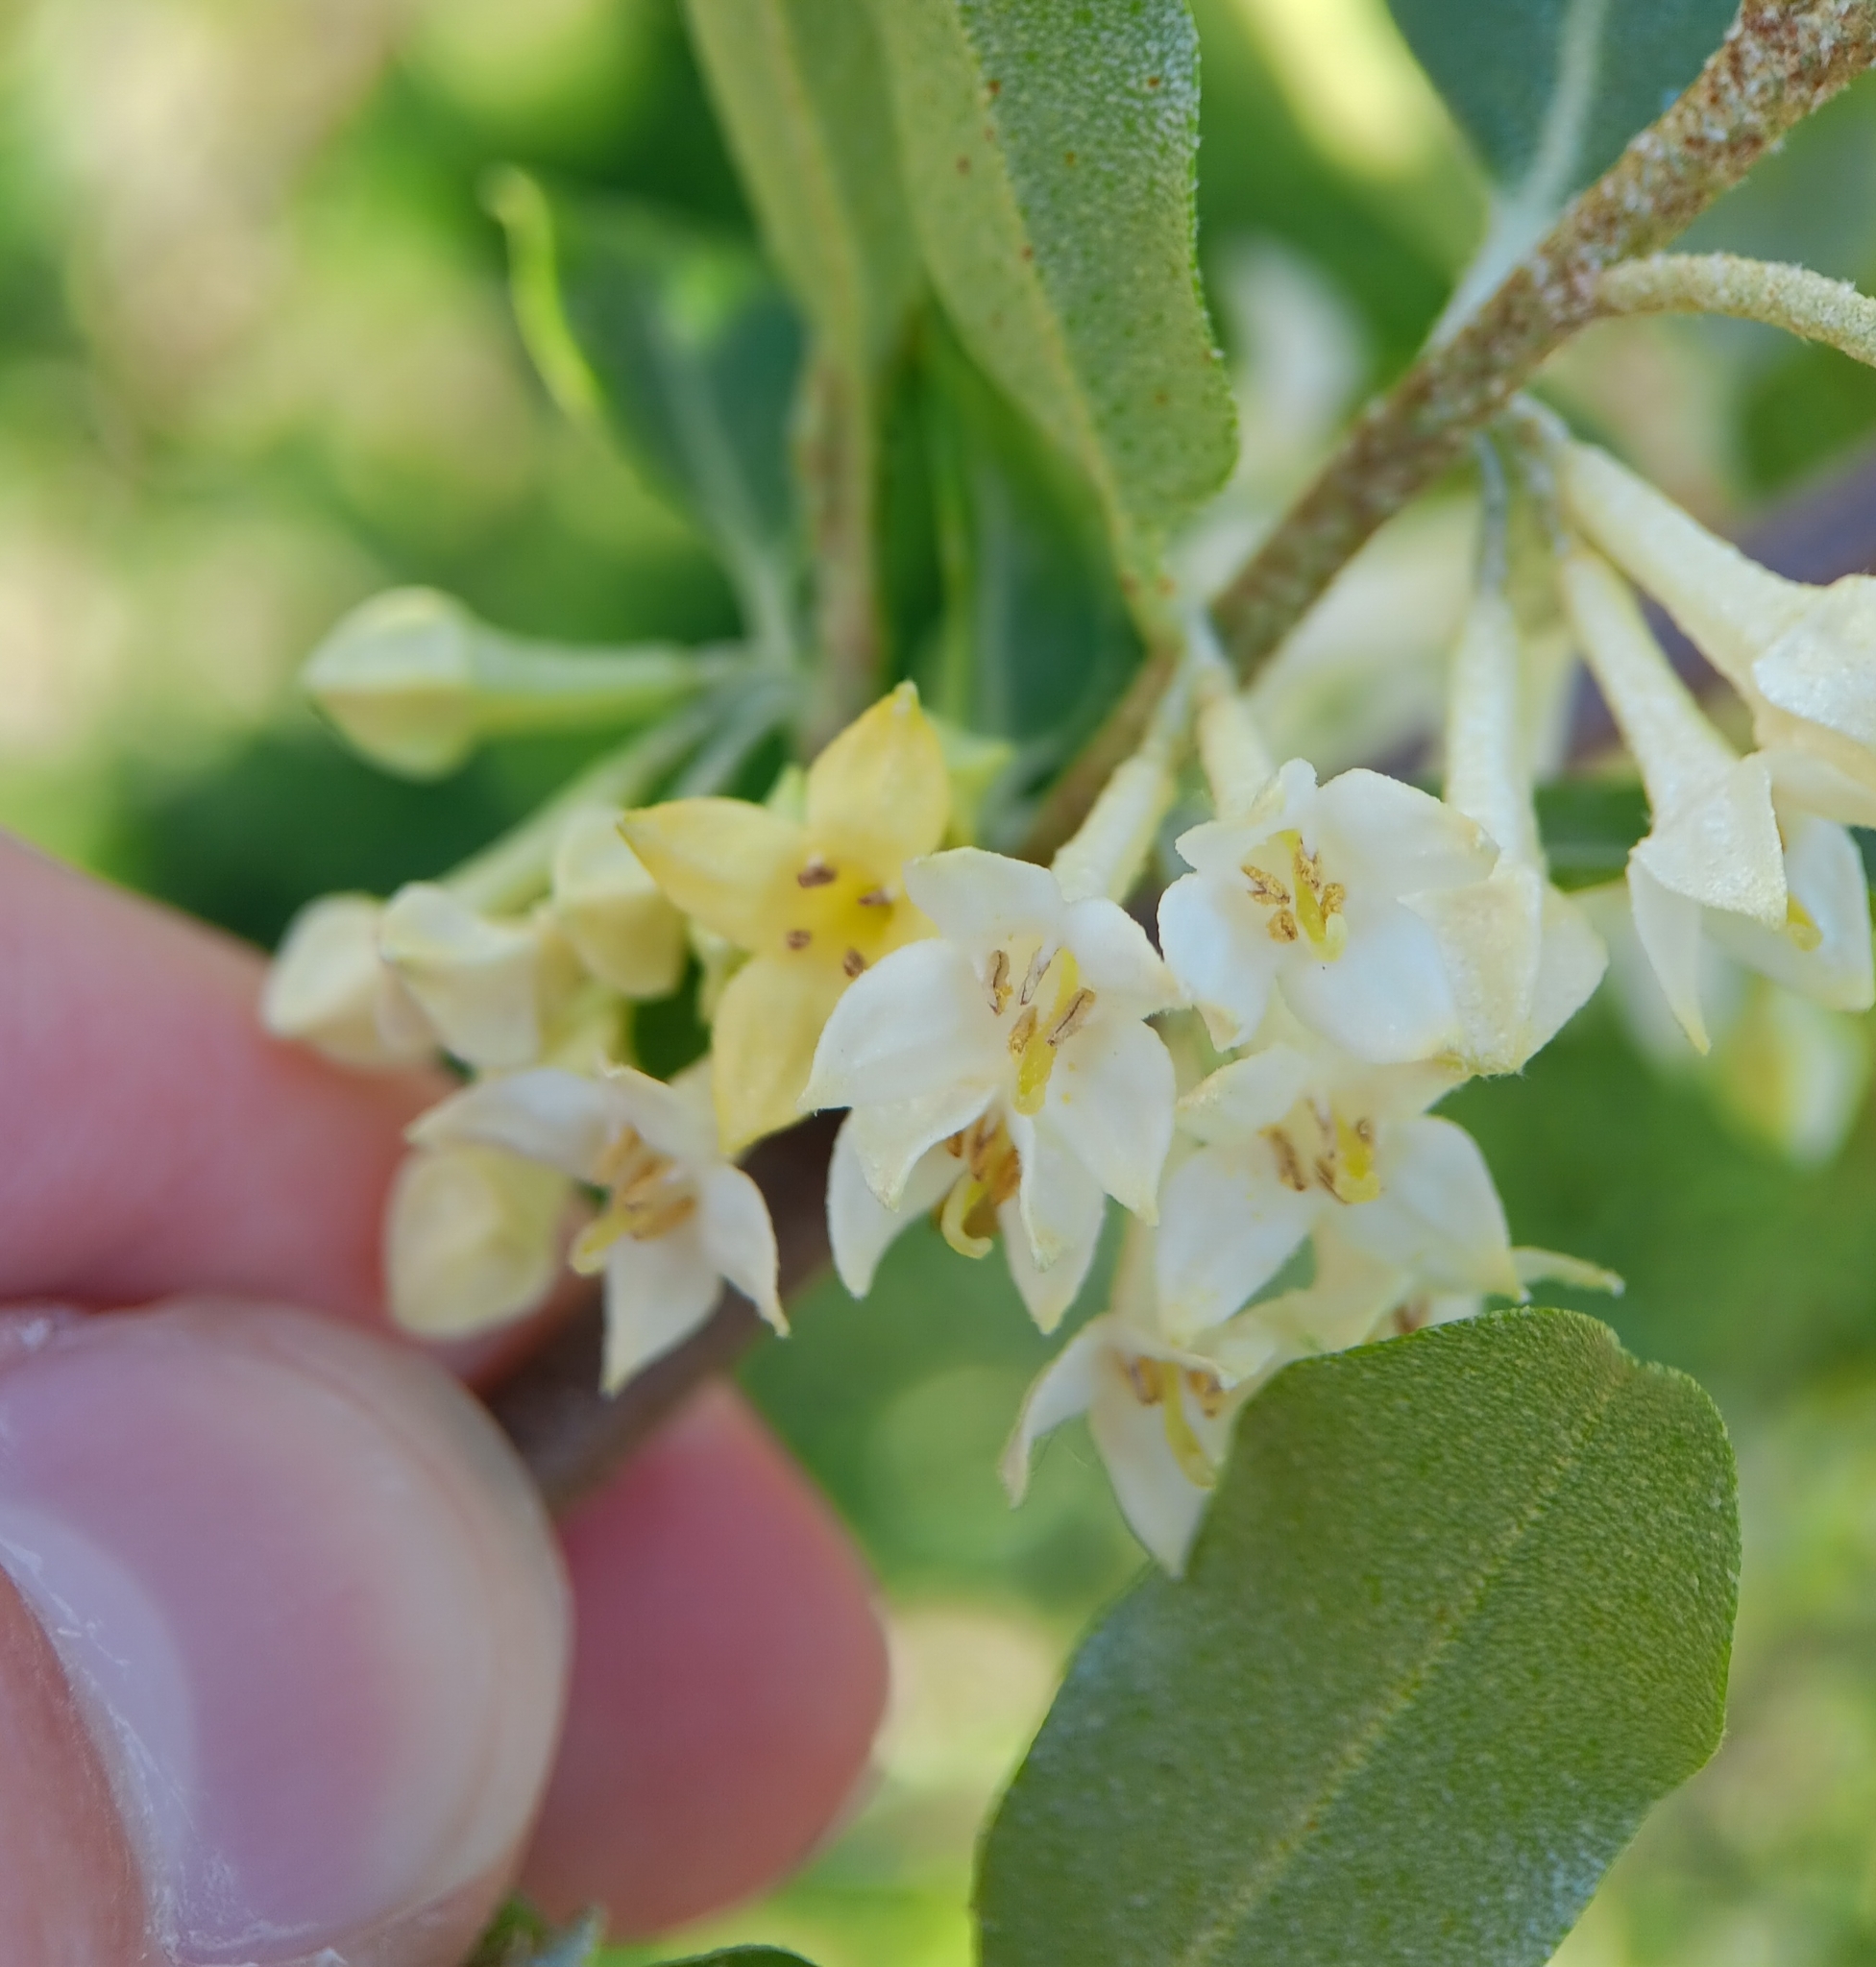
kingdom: Plantae
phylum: Tracheophyta
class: Magnoliopsida
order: Rosales
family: Elaeagnaceae
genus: Elaeagnus
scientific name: Elaeagnus umbellata
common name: Autumn olive
